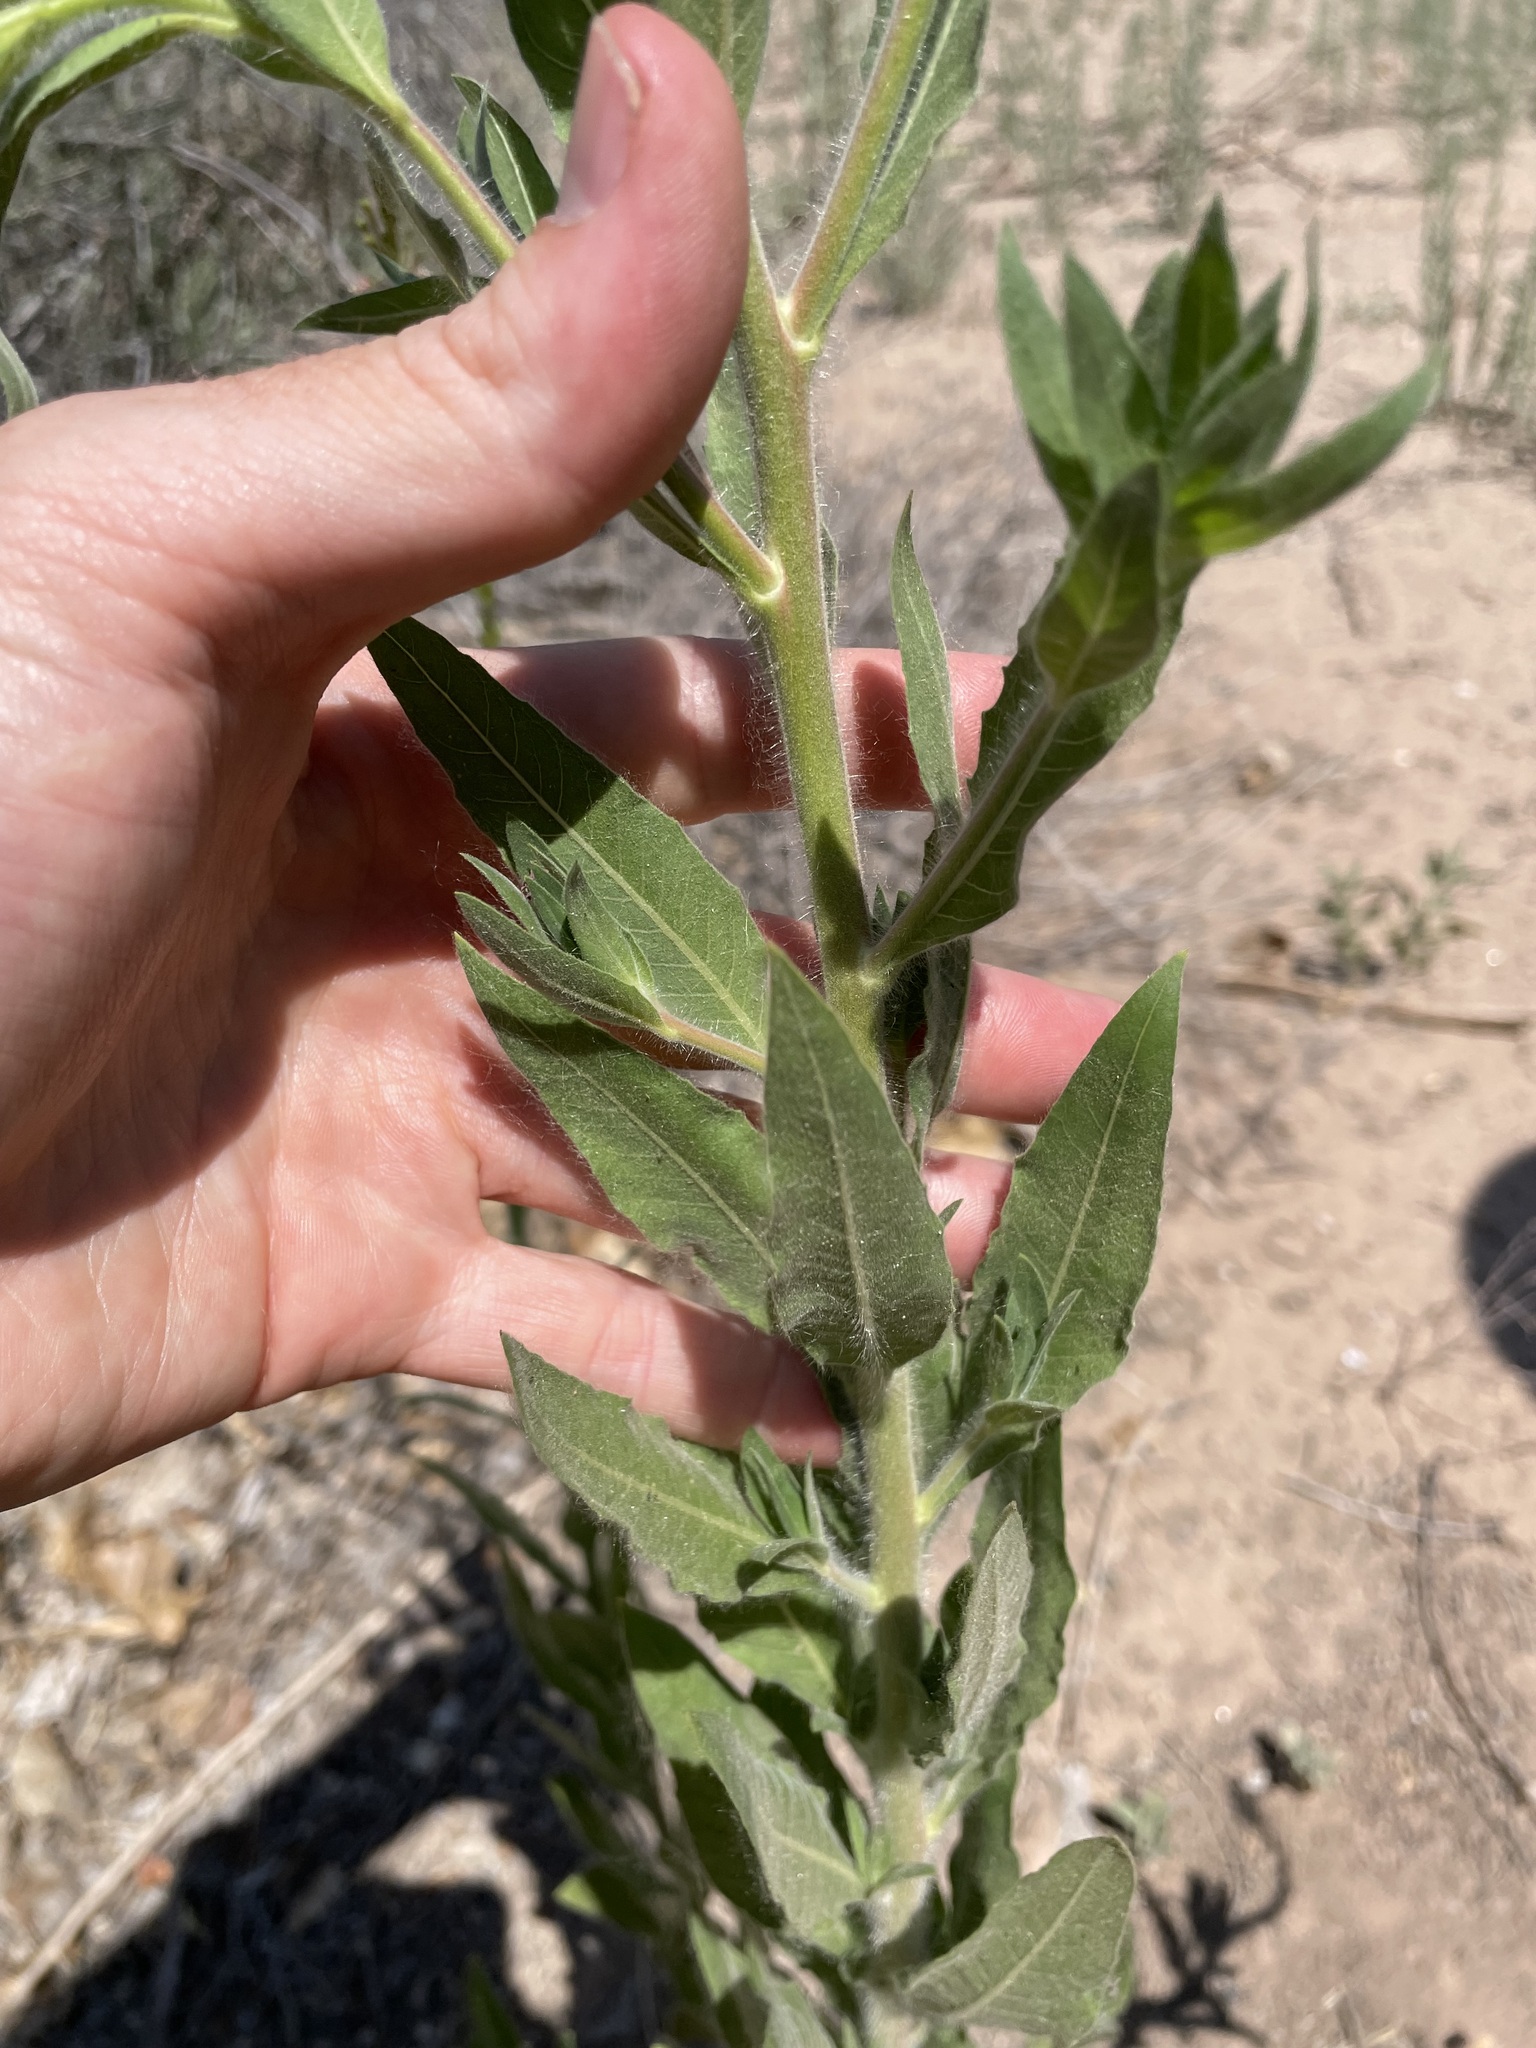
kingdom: Plantae
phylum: Tracheophyta
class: Magnoliopsida
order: Myrtales
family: Onagraceae
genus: Oenothera
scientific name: Oenothera curtiflora
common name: Velvetweed
